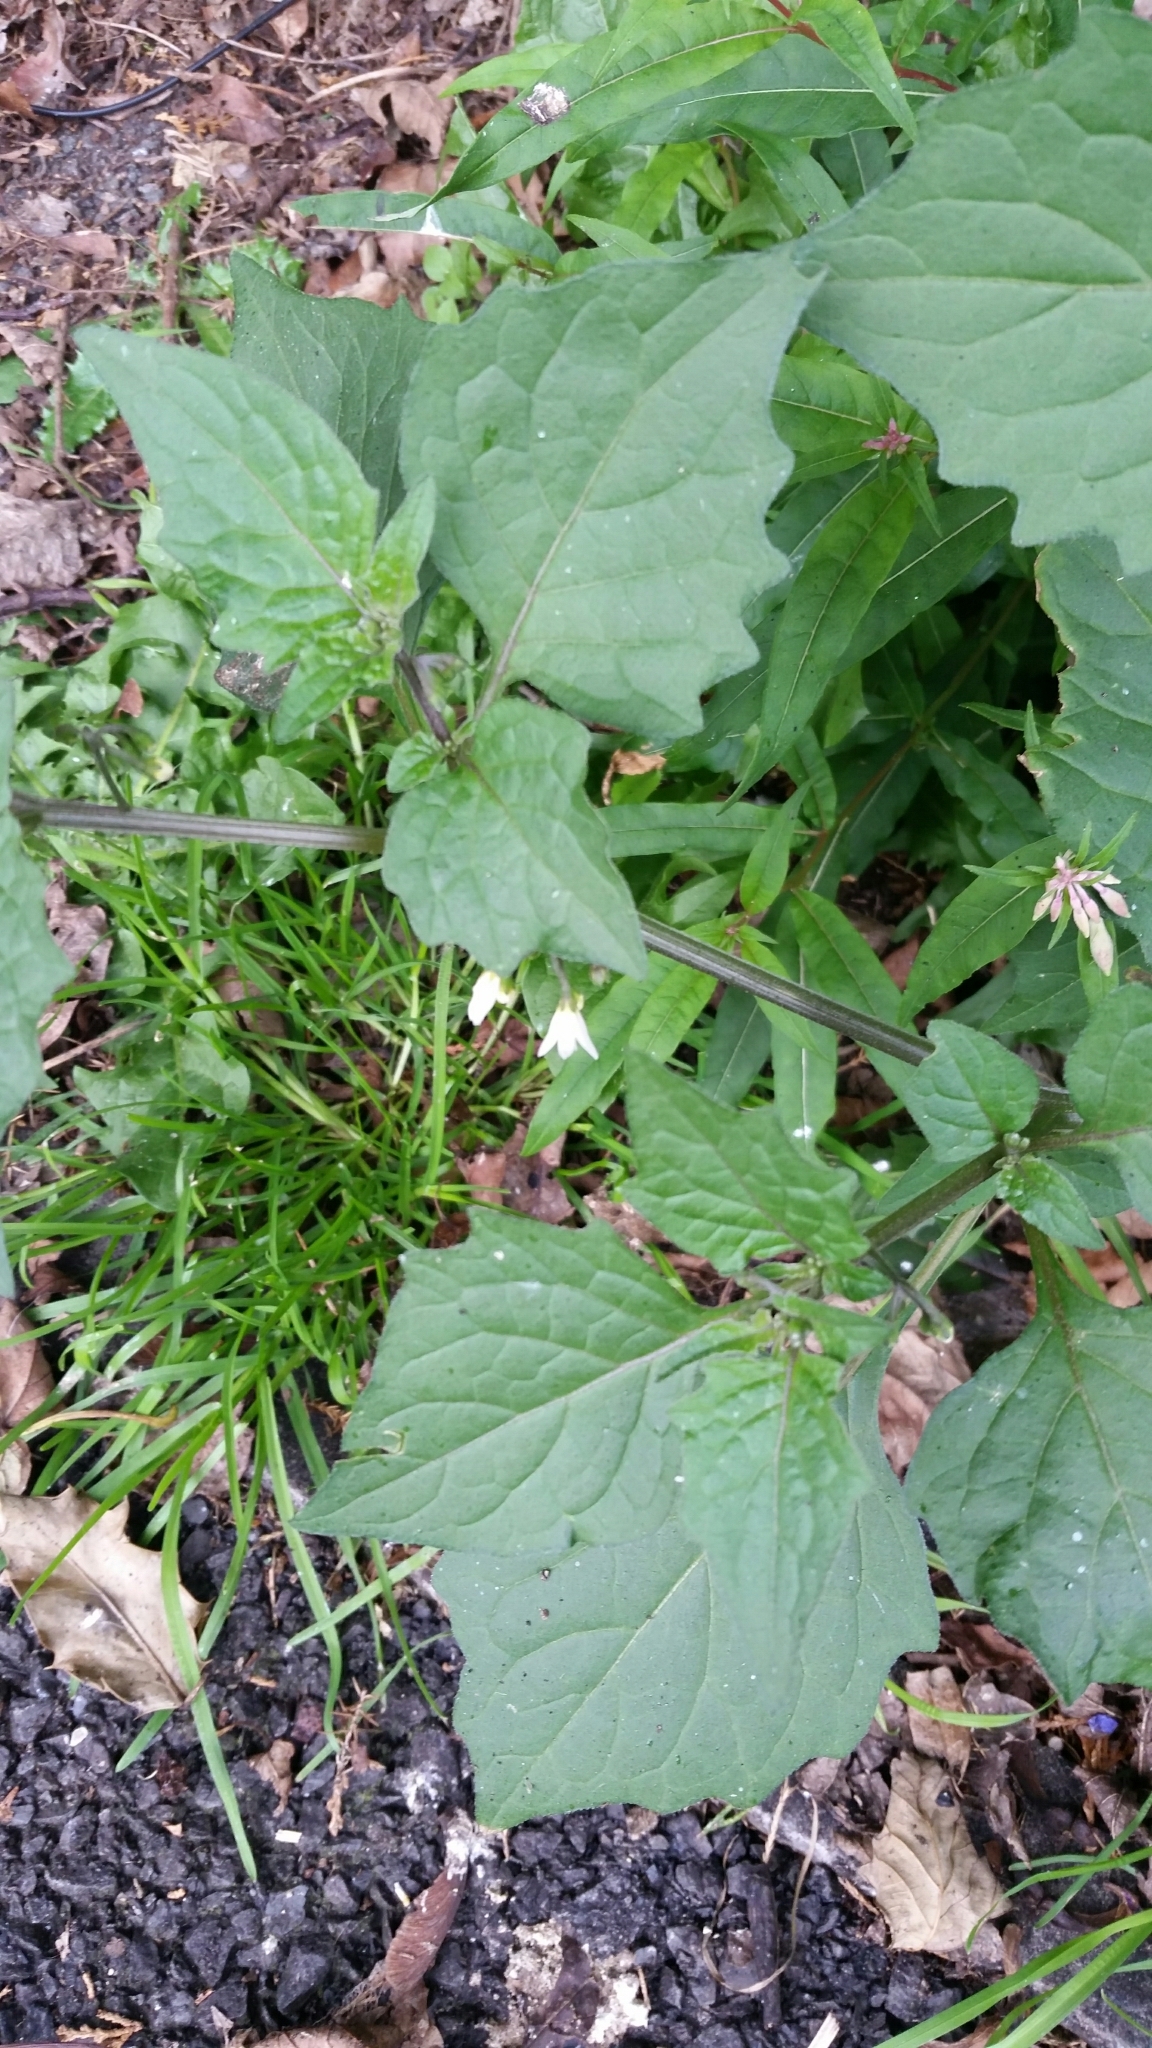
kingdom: Plantae
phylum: Tracheophyta
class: Magnoliopsida
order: Solanales
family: Solanaceae
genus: Solanum
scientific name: Solanum nigrum
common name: Black nightshade
